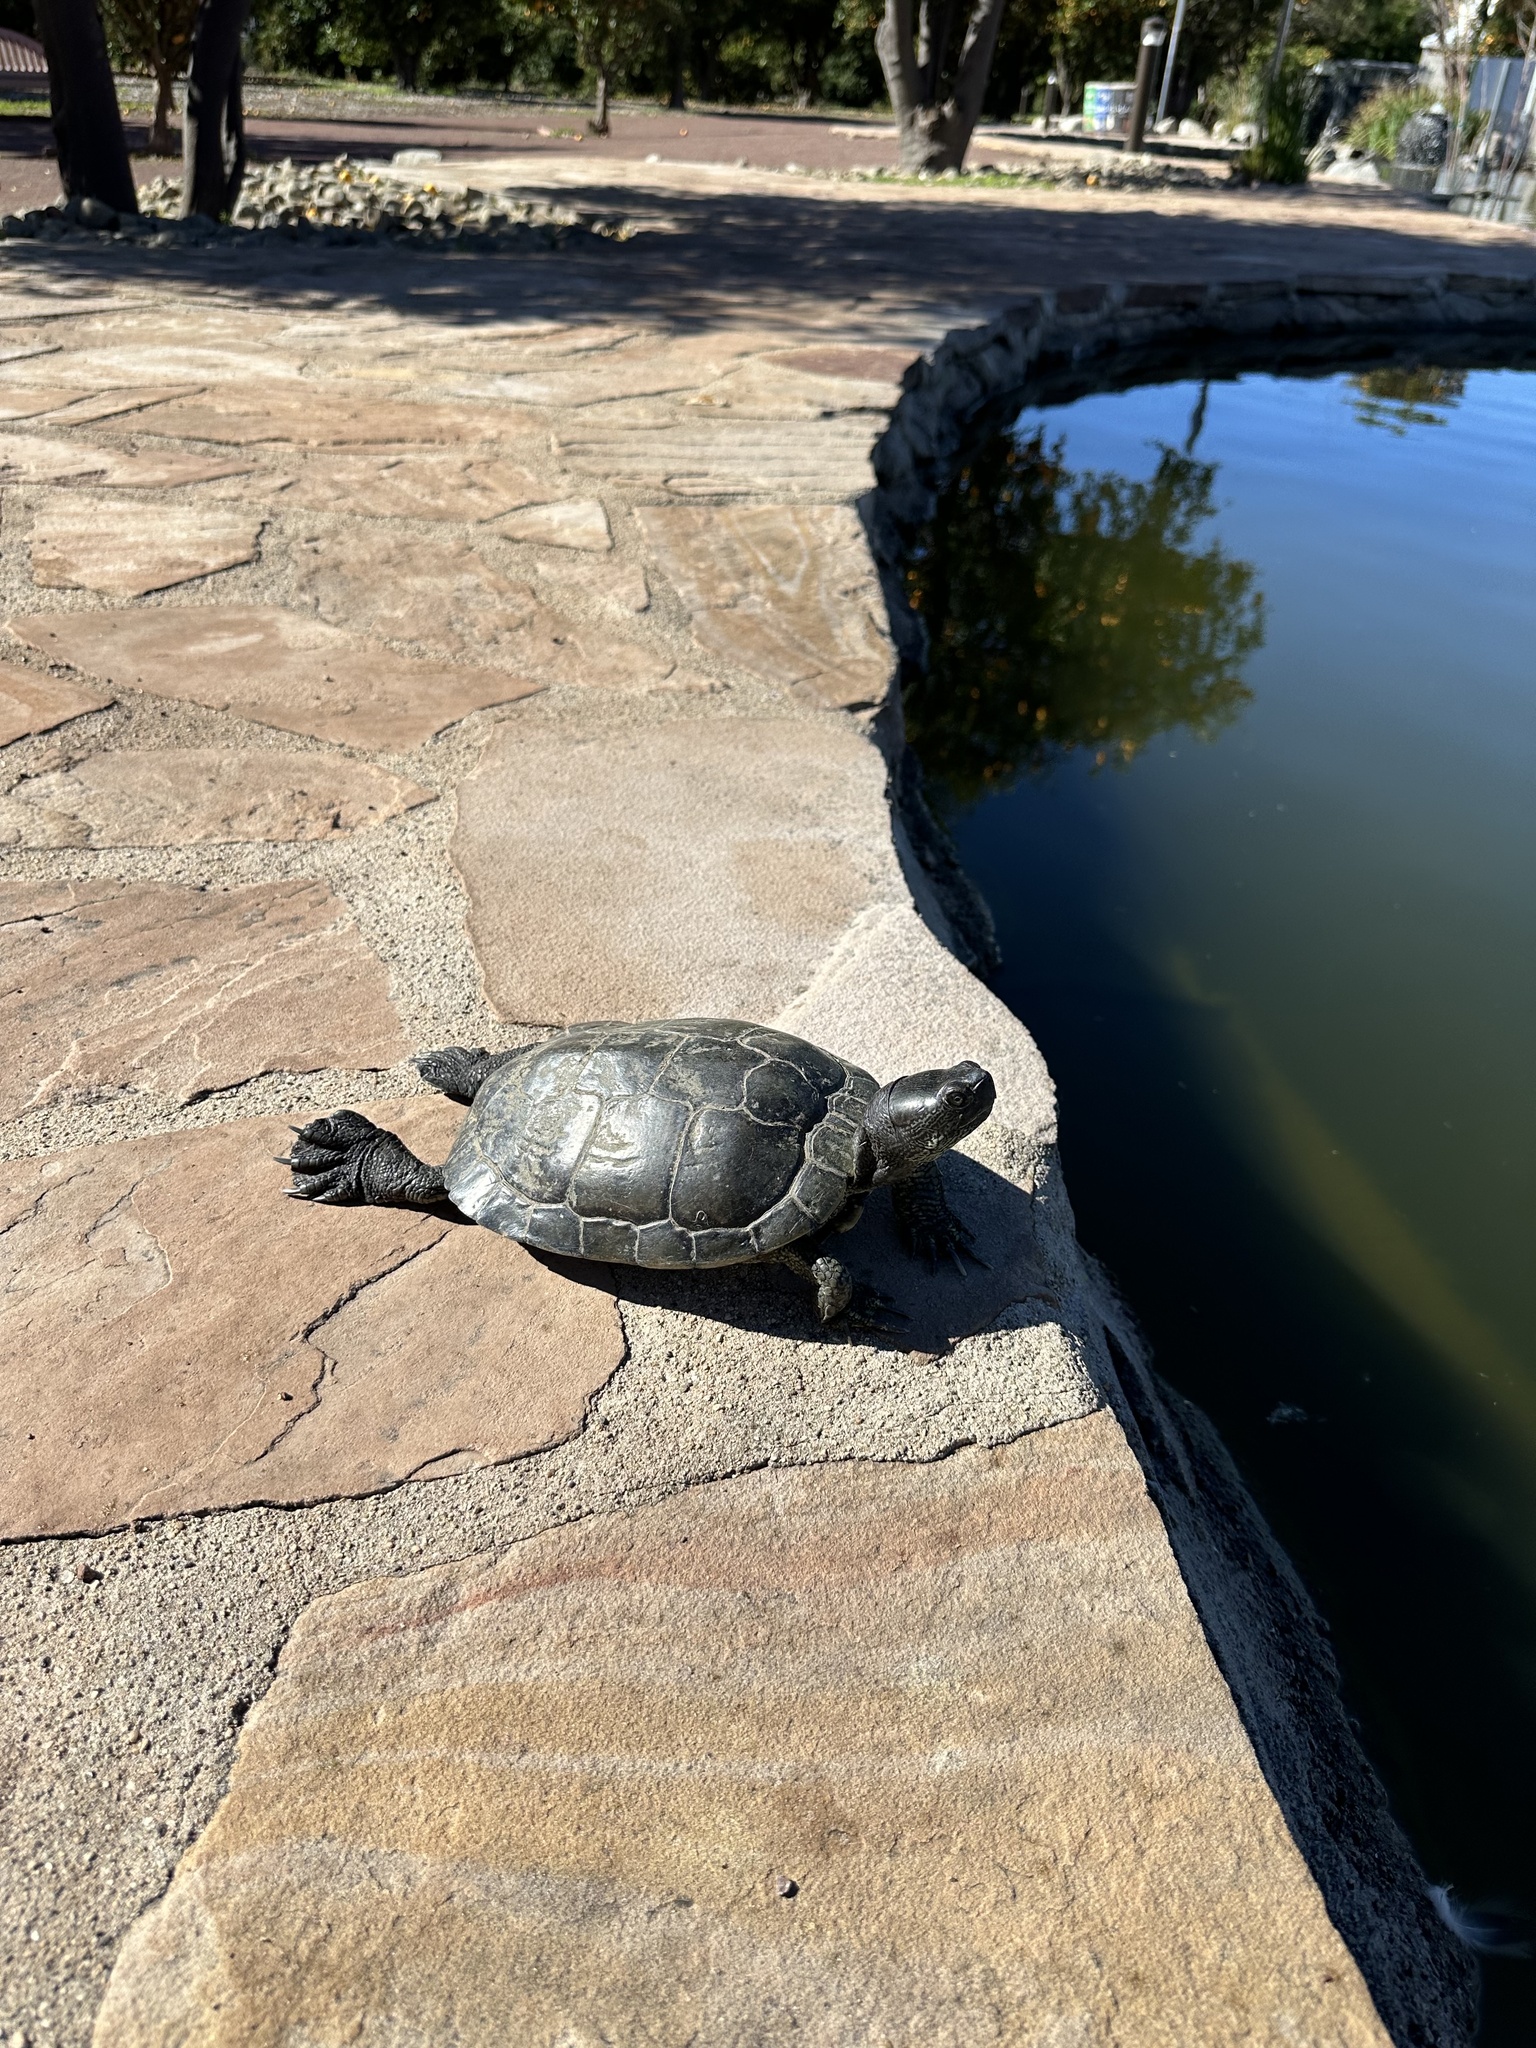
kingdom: Animalia
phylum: Chordata
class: Testudines
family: Emydidae
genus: Trachemys
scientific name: Trachemys scripta
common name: Slider
